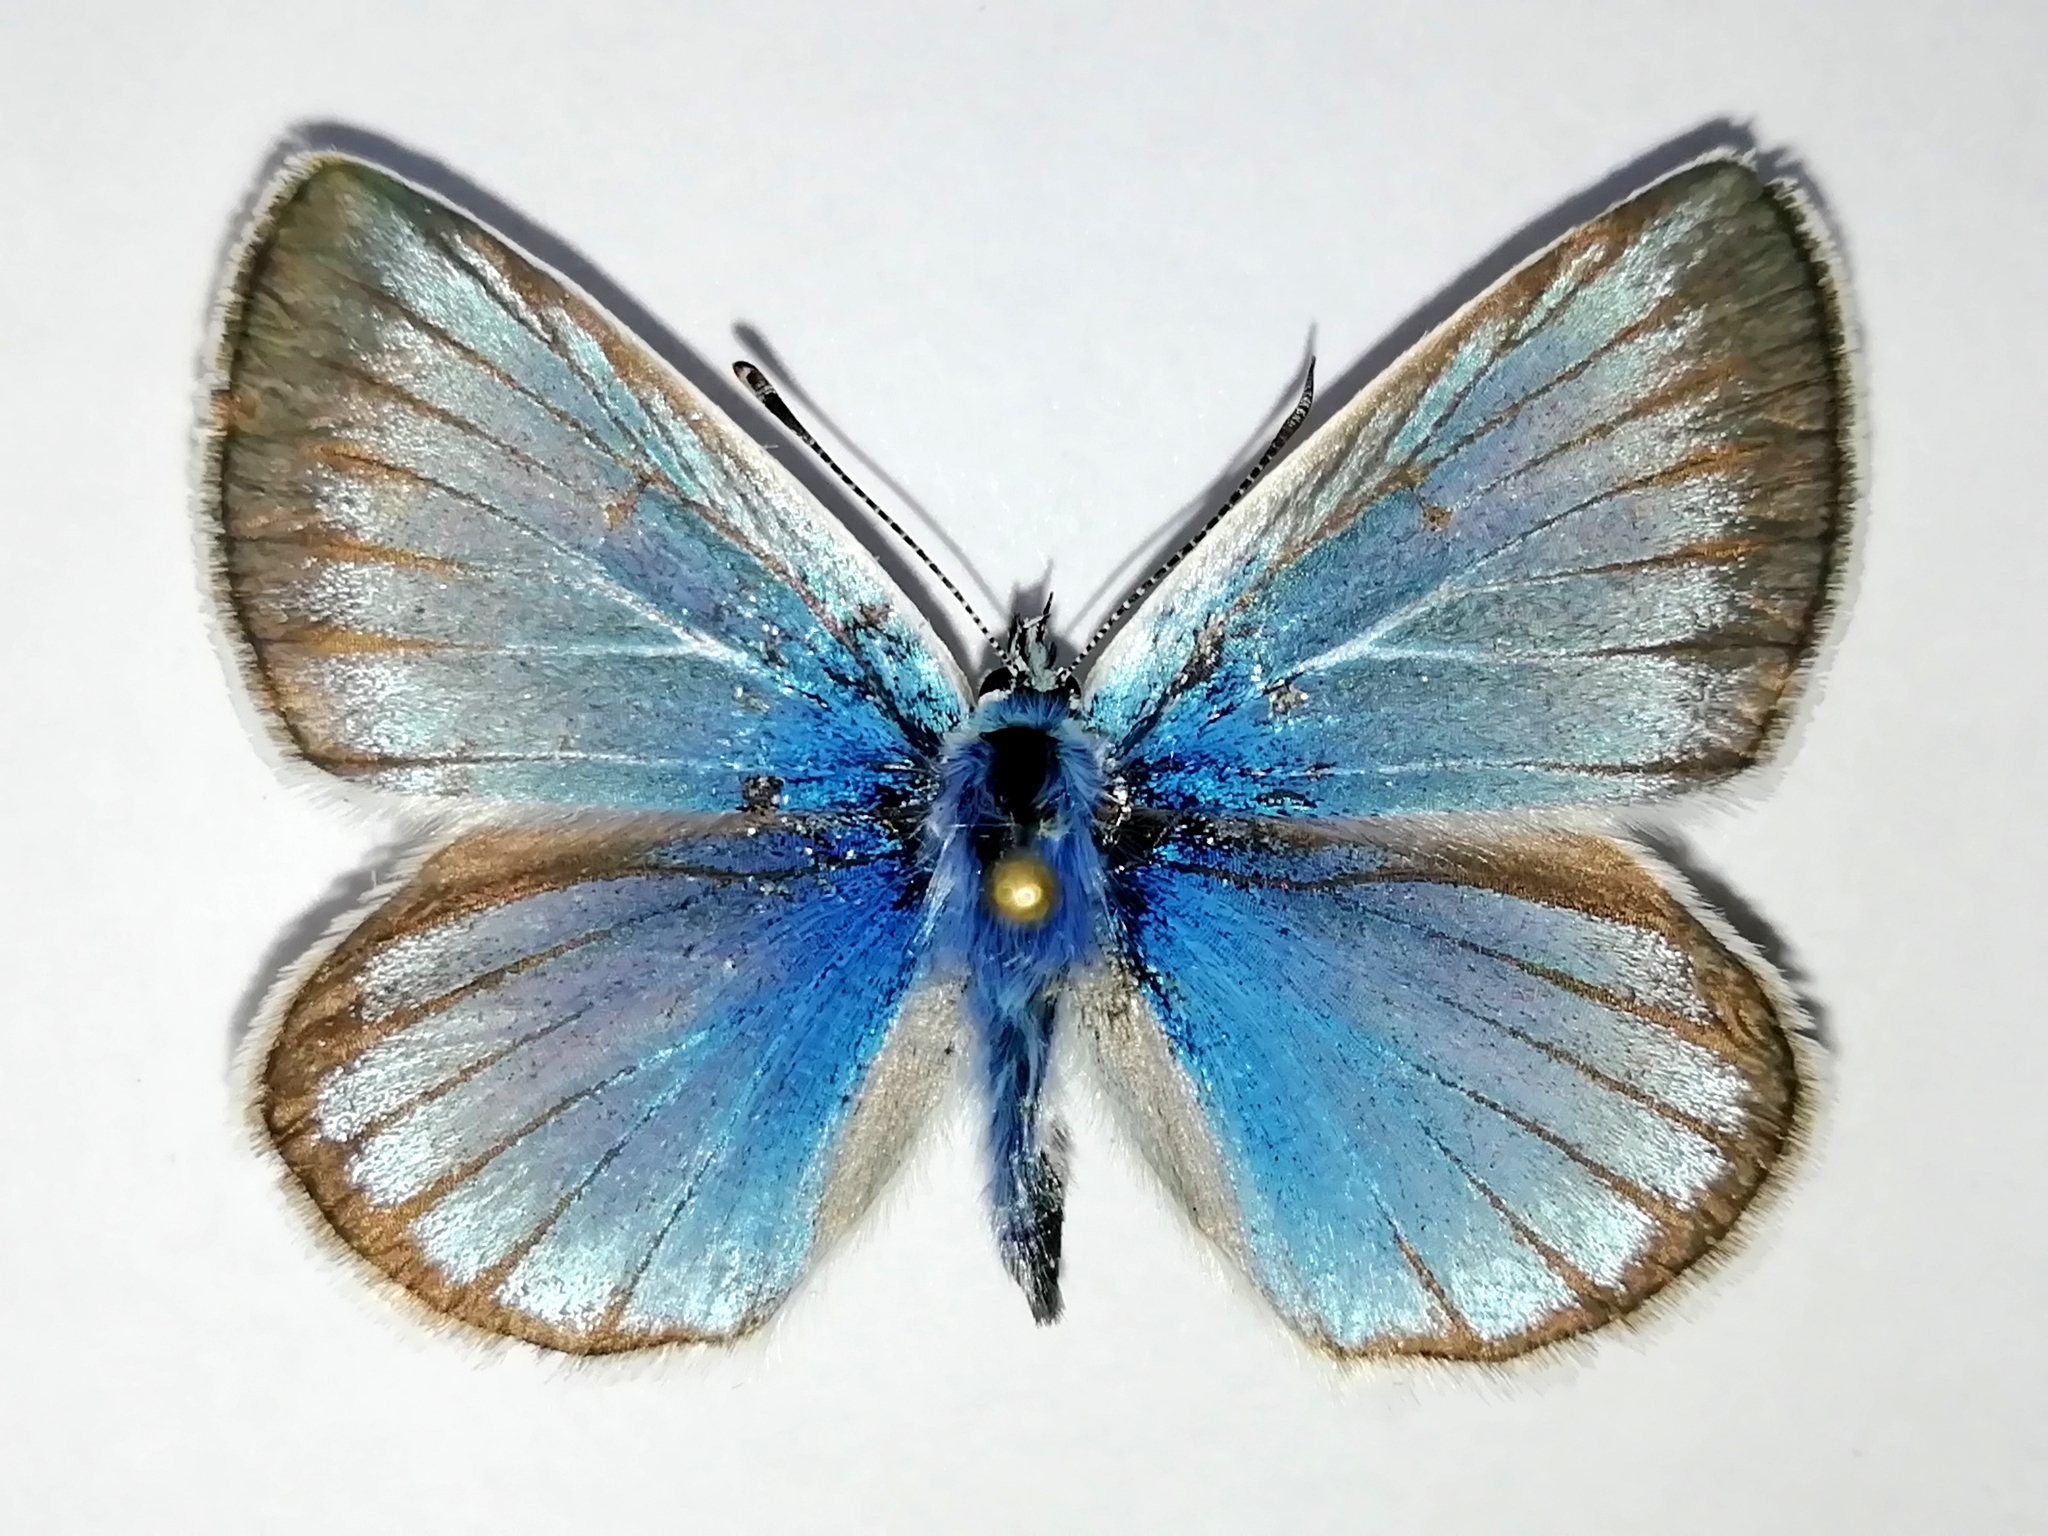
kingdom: Animalia
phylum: Arthropoda
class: Insecta
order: Lepidoptera
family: Lycaenidae
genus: Agrodiaetus
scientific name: Agrodiaetus damon
